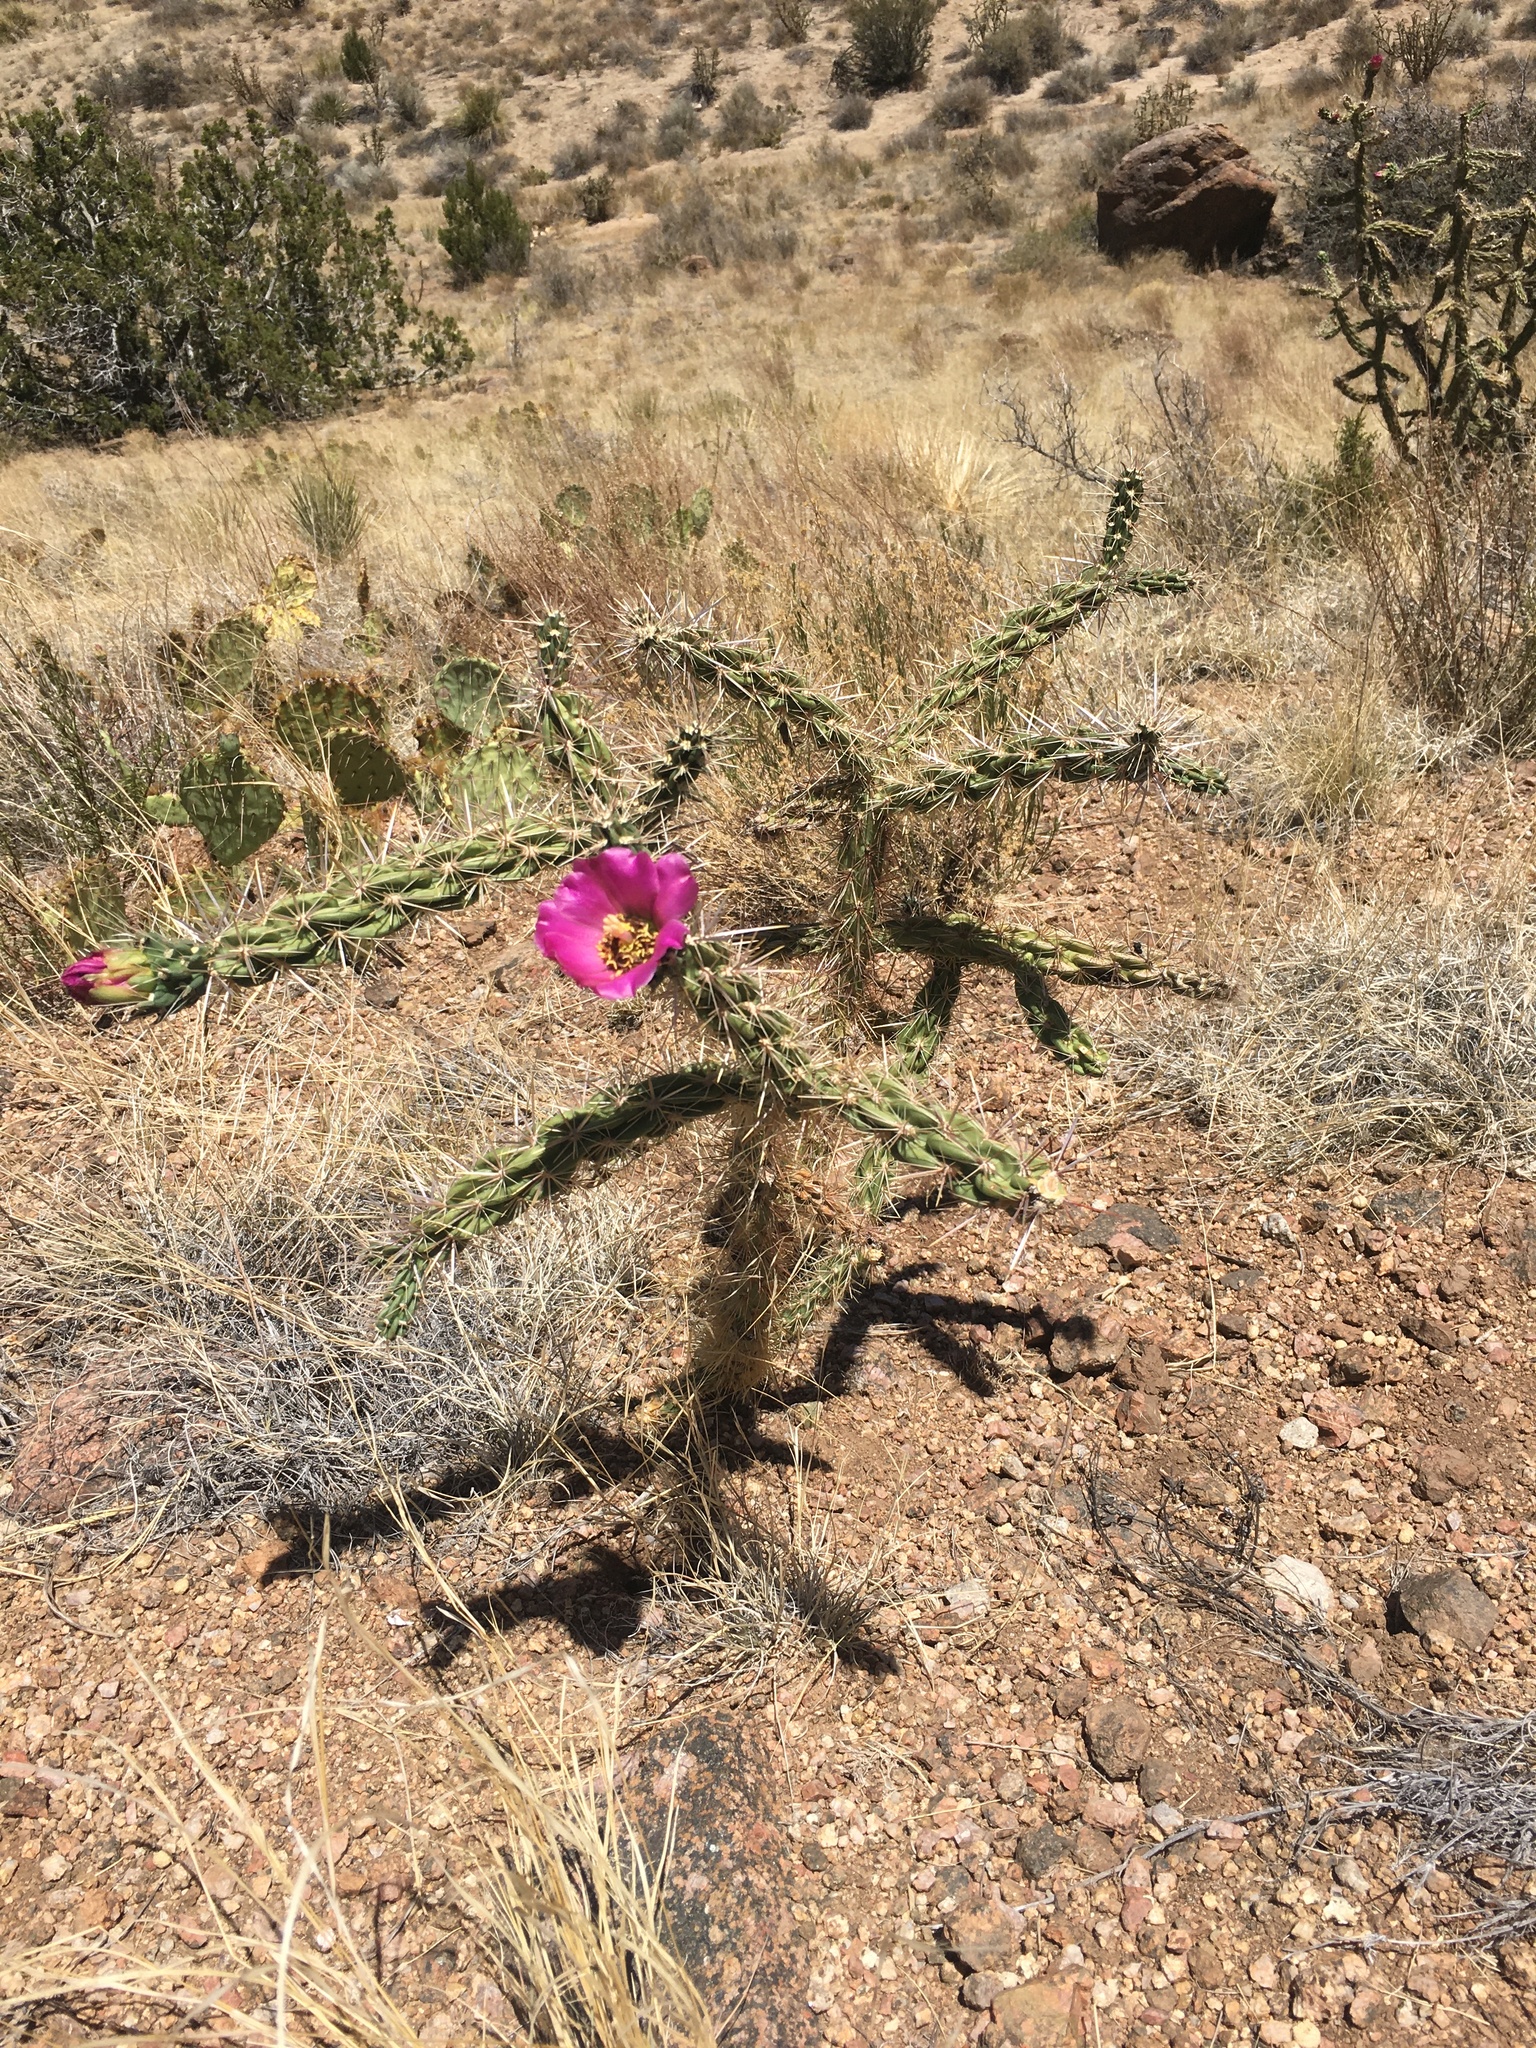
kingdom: Plantae
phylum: Tracheophyta
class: Magnoliopsida
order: Caryophyllales
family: Cactaceae
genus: Cylindropuntia
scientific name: Cylindropuntia imbricata
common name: Candelabrum cactus
